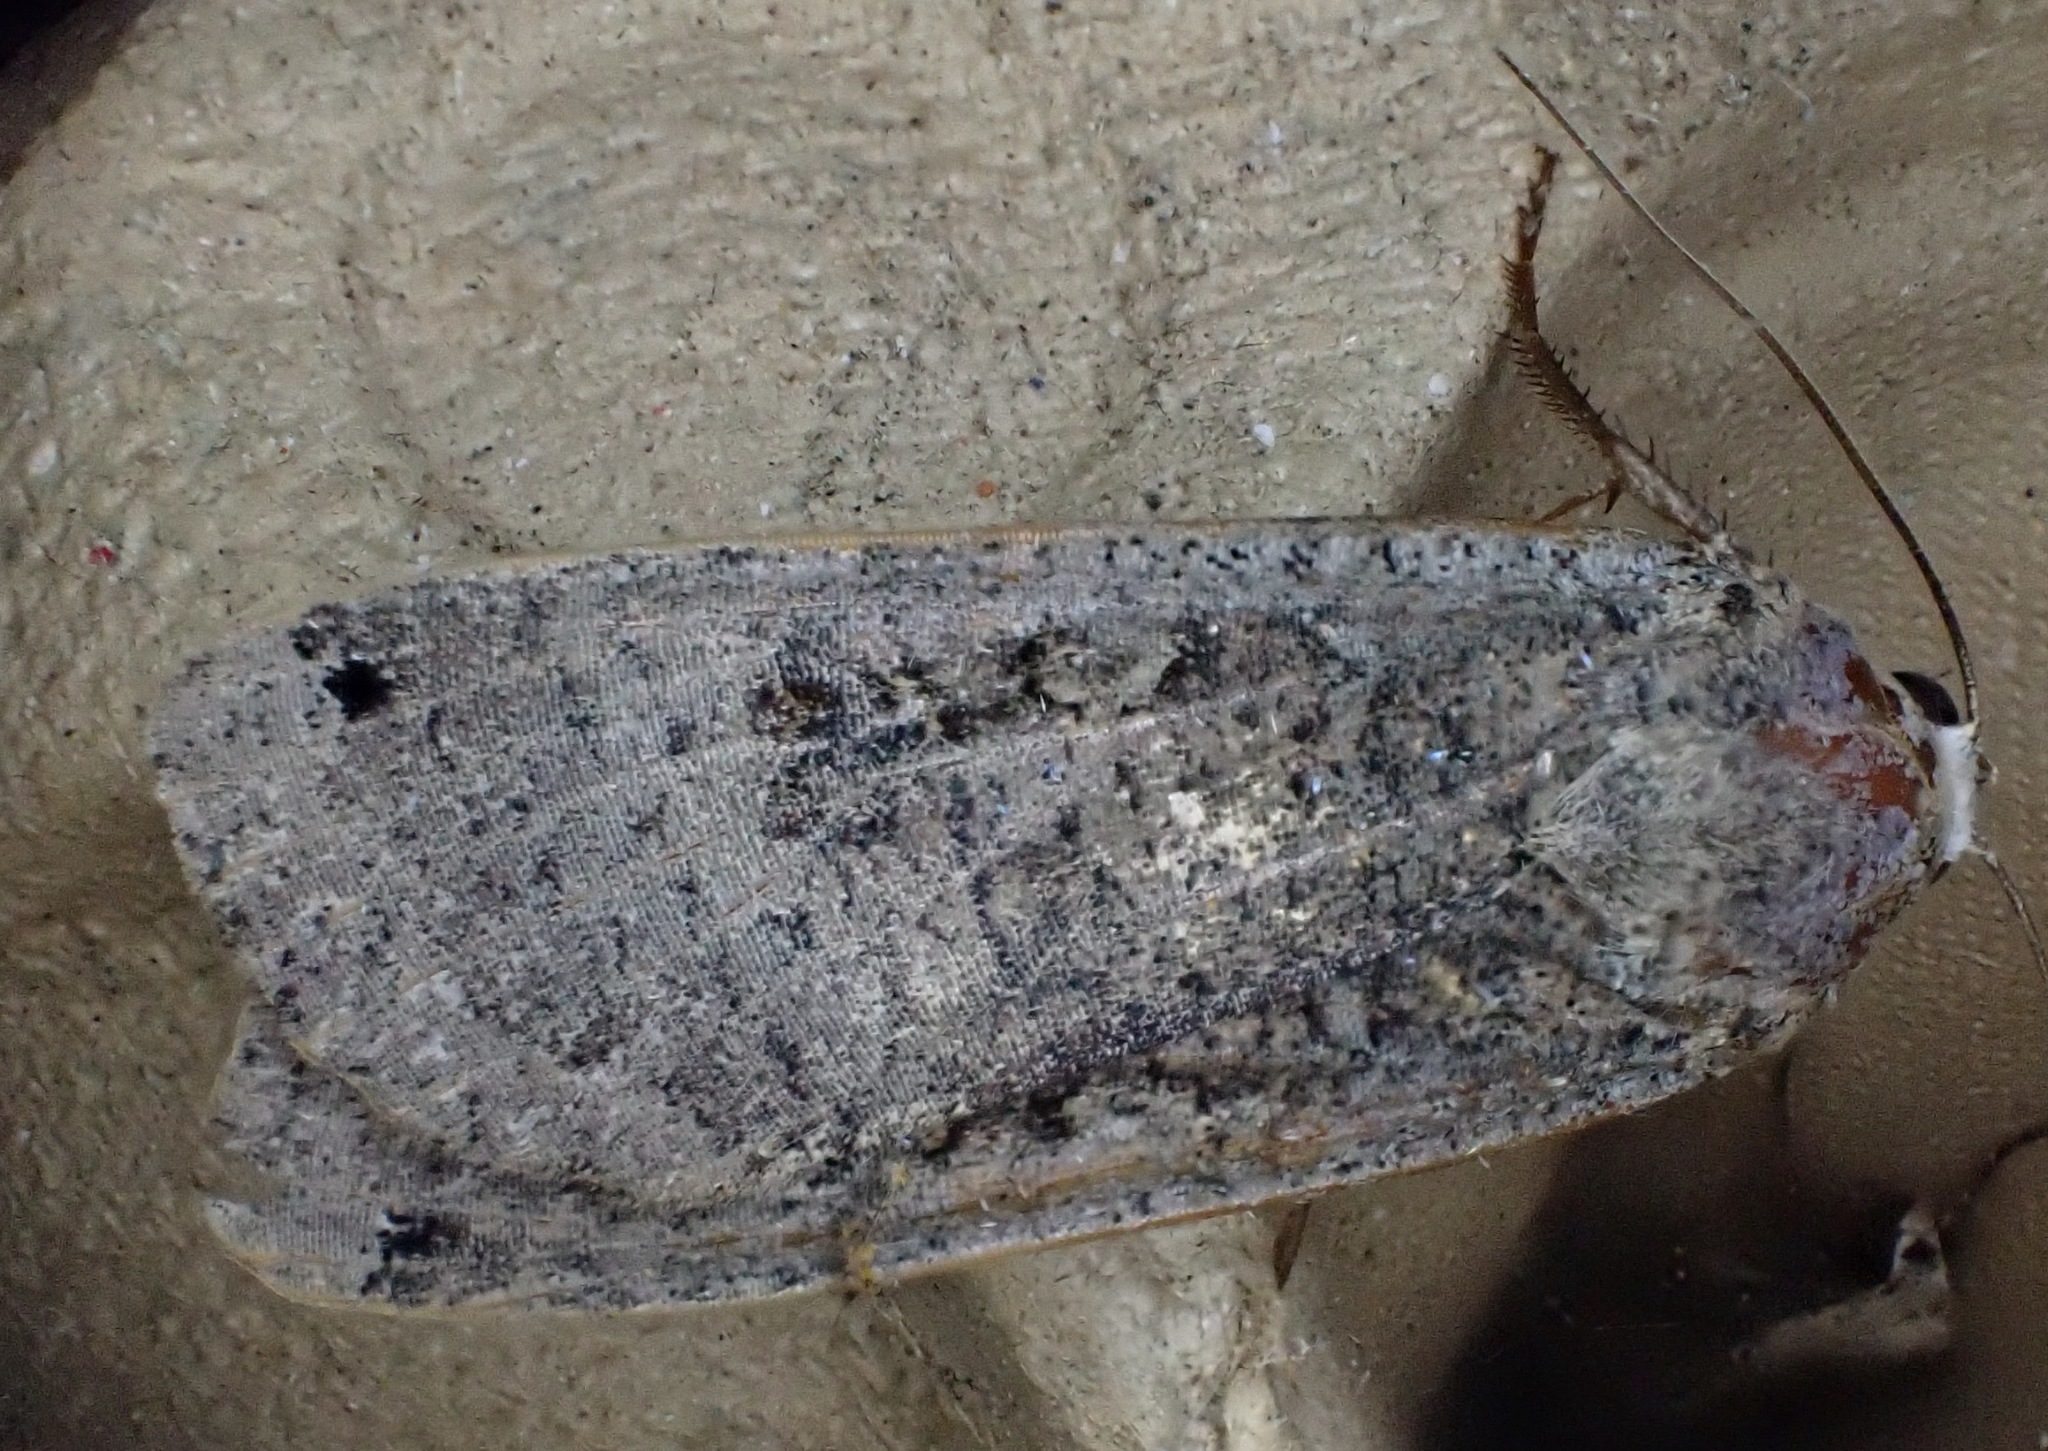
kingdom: Animalia
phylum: Arthropoda
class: Insecta
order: Lepidoptera
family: Noctuidae
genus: Noctua
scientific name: Noctua pronuba
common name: Large yellow underwing
